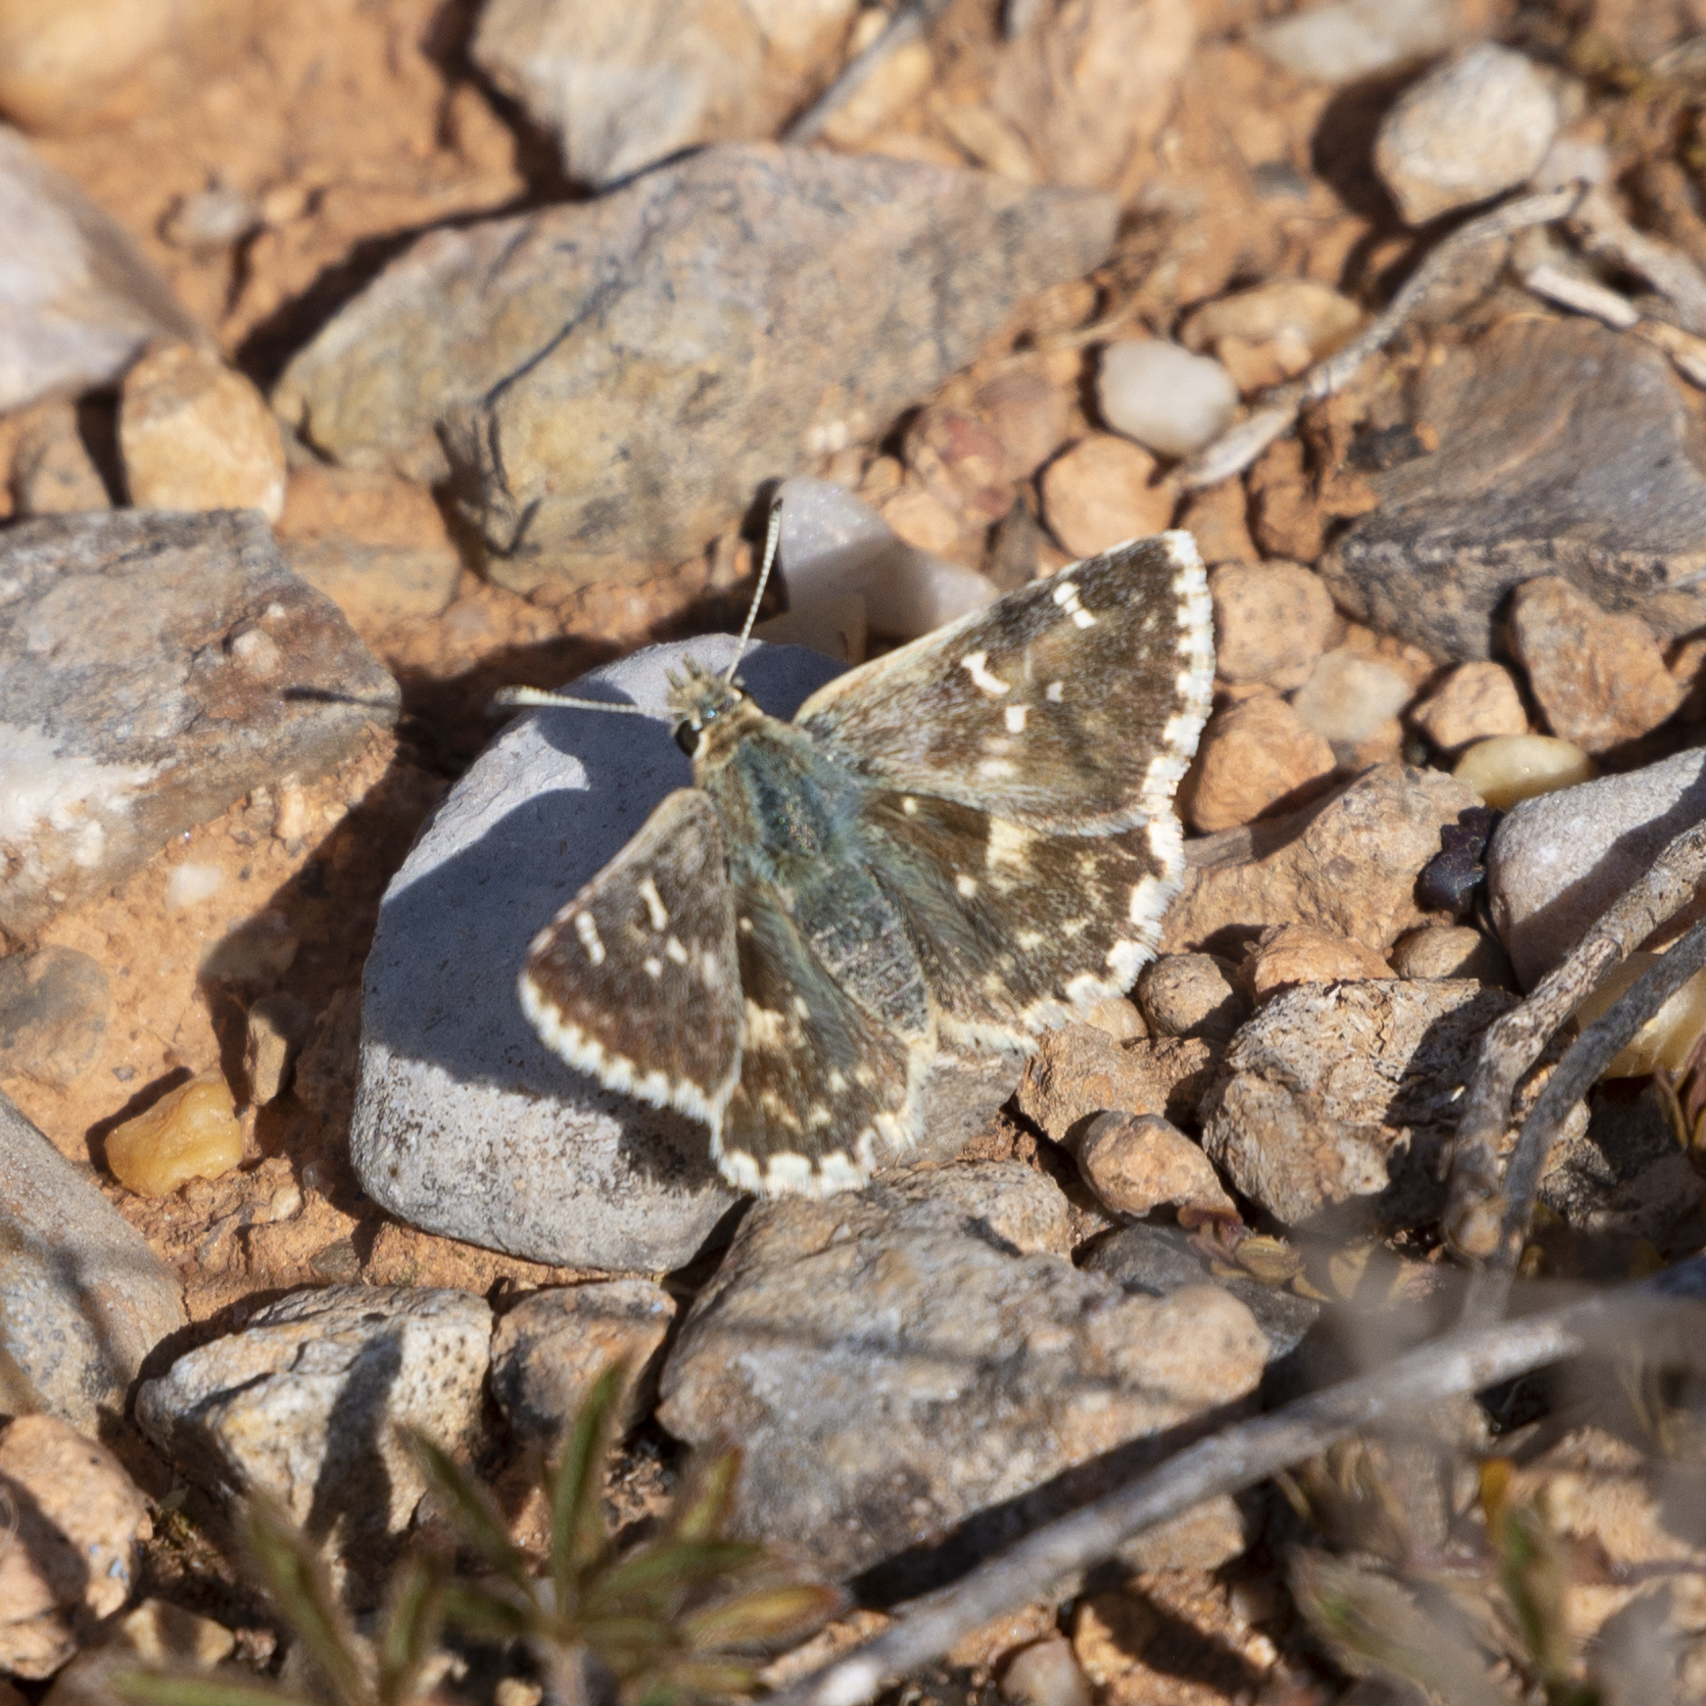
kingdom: Animalia
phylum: Arthropoda
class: Insecta
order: Lepidoptera
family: Hesperiidae
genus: Syrichtus
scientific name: Syrichtus Muschampia proto
